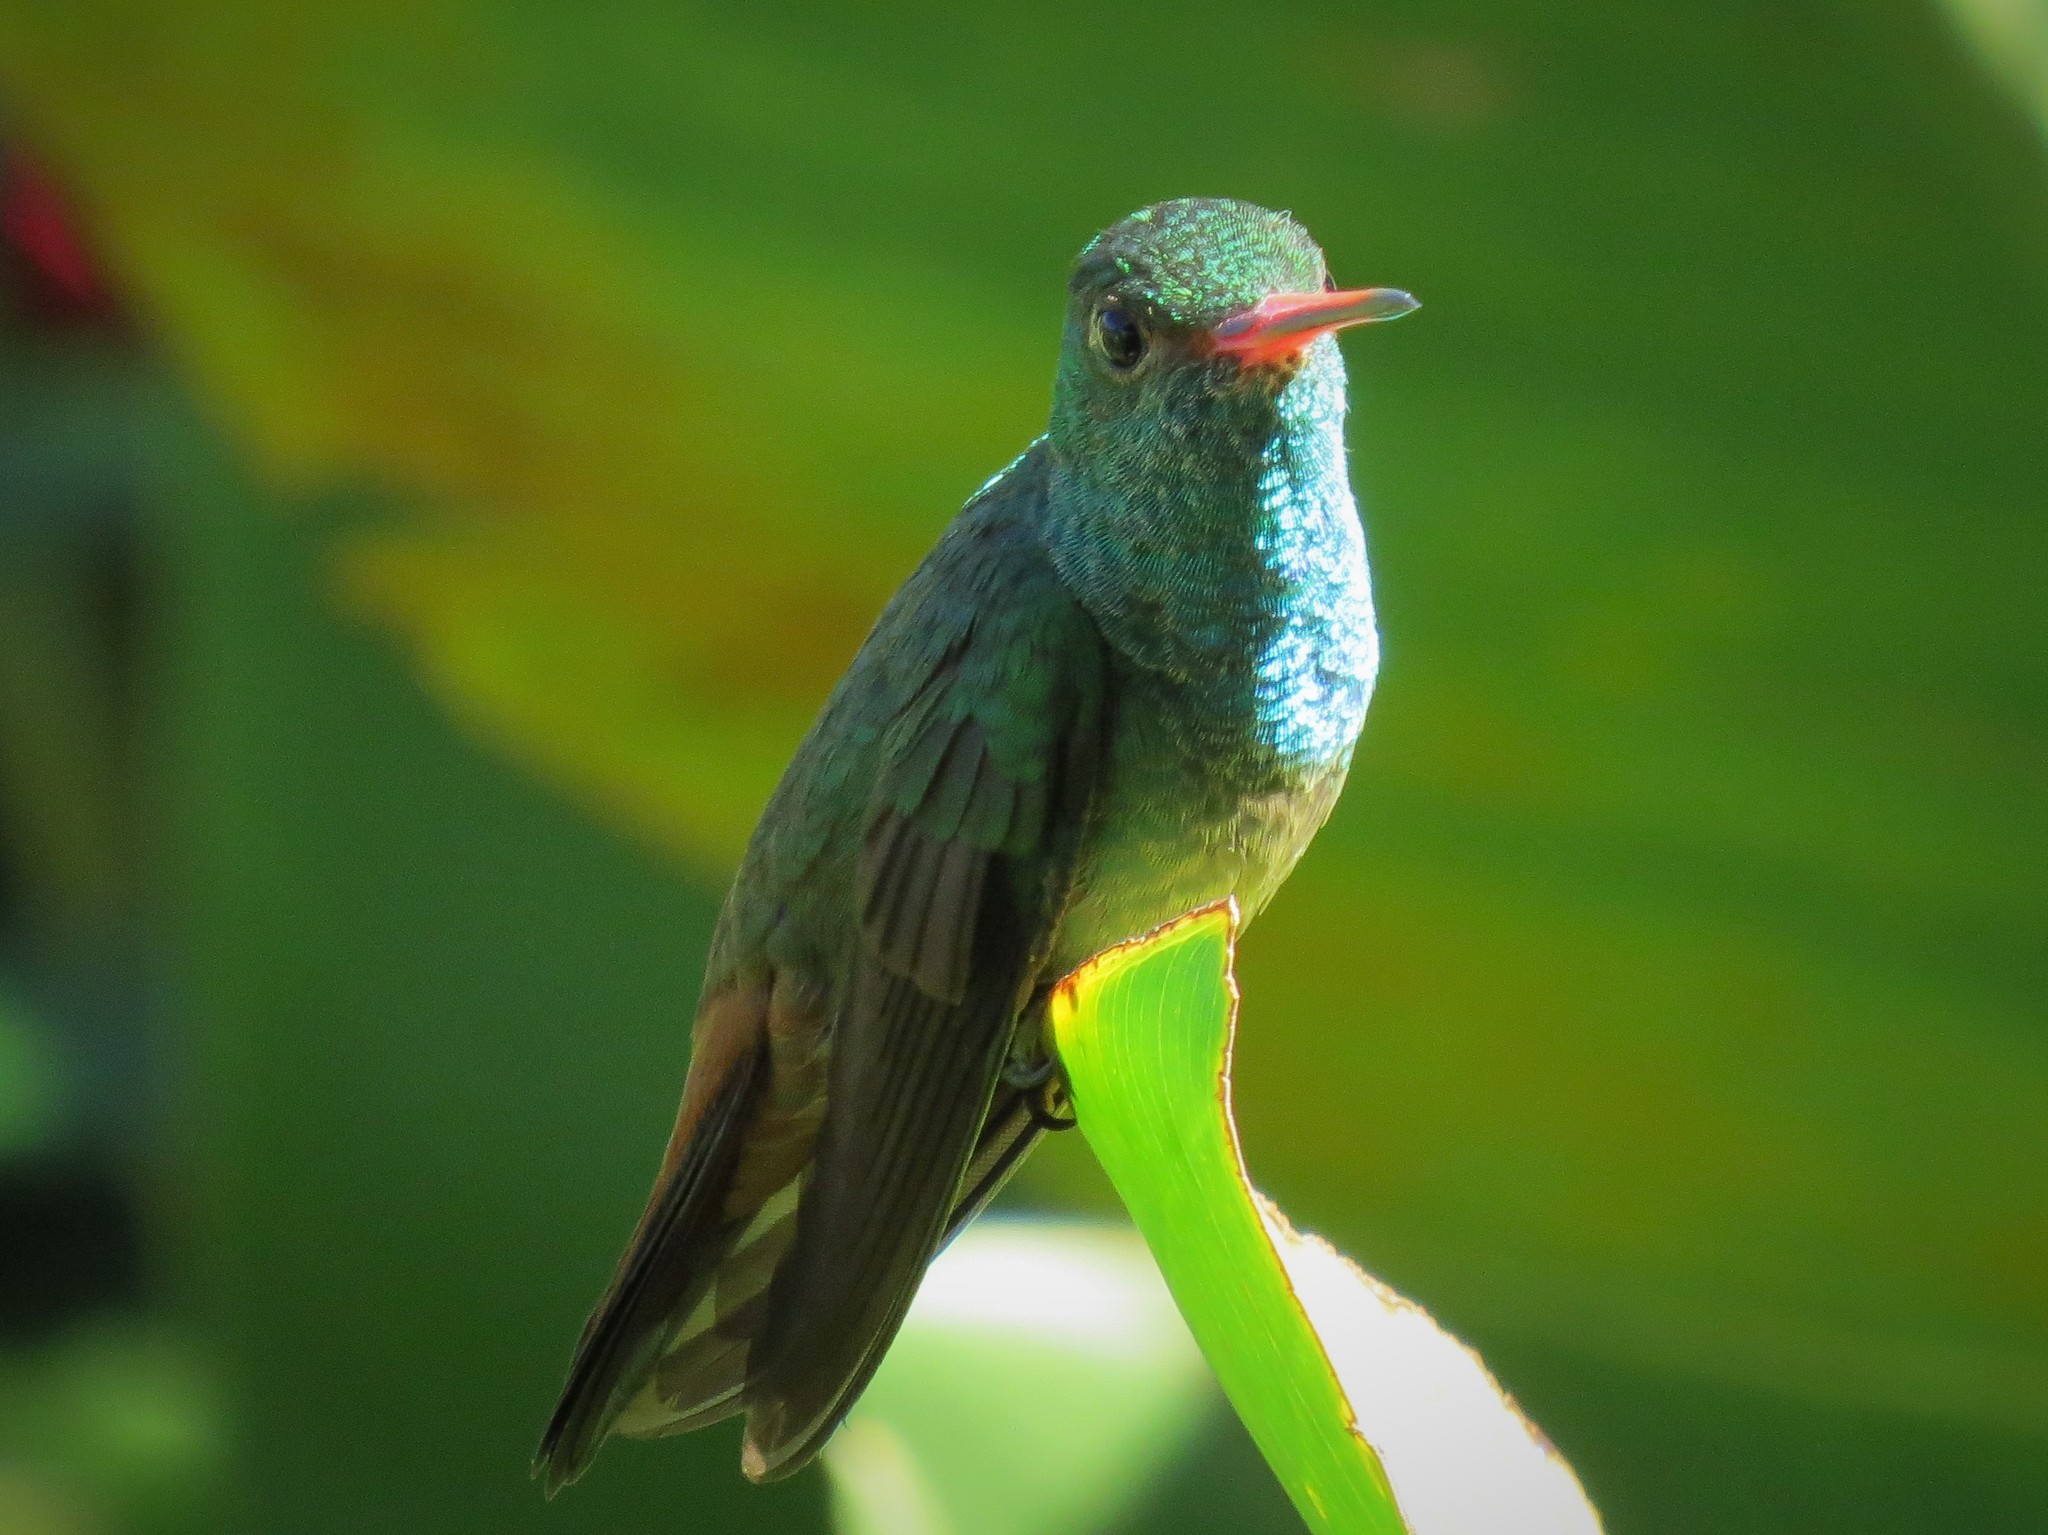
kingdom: Animalia
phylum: Chordata
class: Aves
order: Apodiformes
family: Trochilidae
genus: Amazilia
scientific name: Amazilia yucatanensis
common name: Buff-bellied hummingbird
